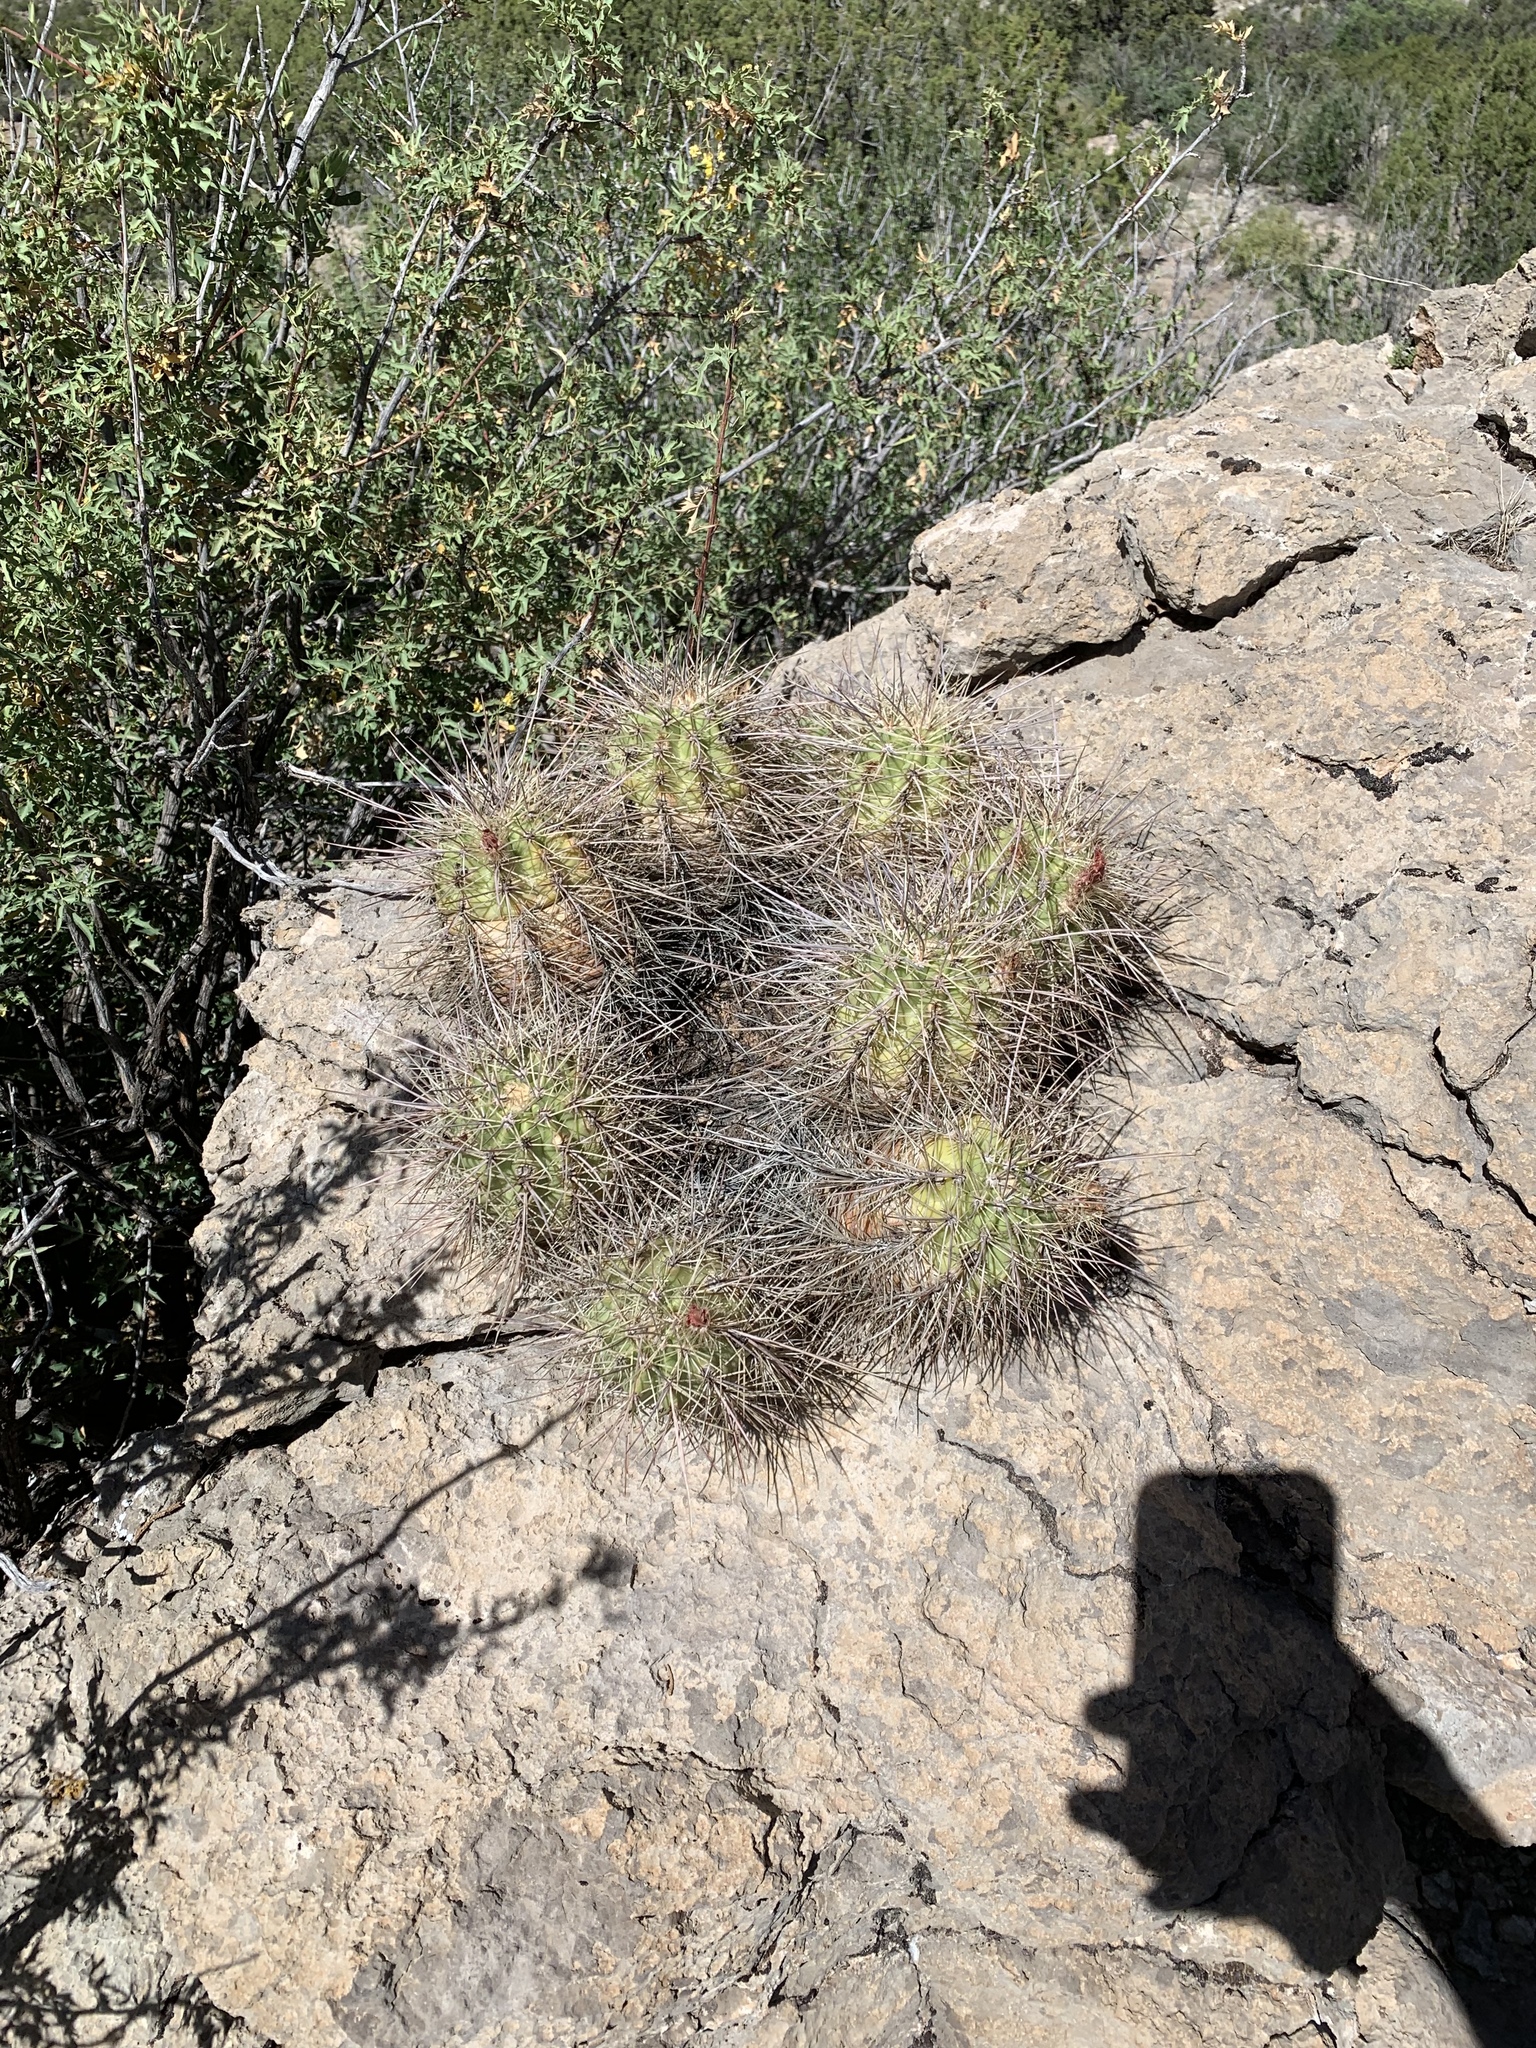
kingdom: Plantae
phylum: Tracheophyta
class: Magnoliopsida
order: Caryophyllales
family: Cactaceae
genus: Echinocereus
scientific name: Echinocereus coccineus
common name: Scarlet hedgehog cactus
